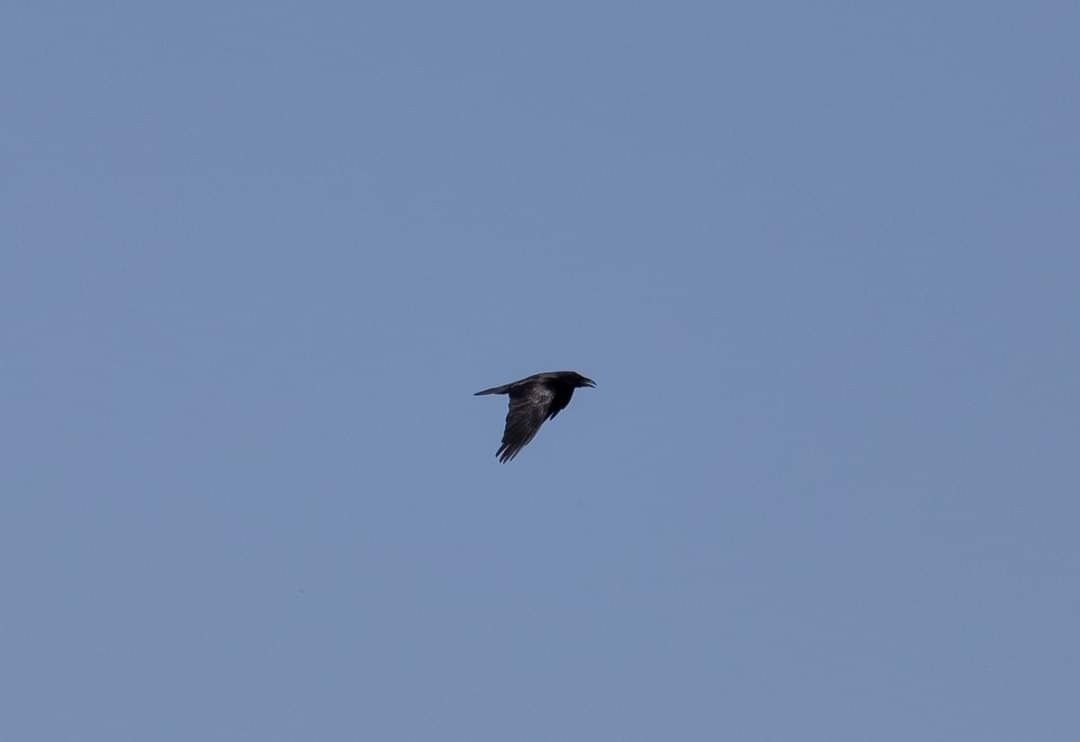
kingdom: Animalia
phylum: Chordata
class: Aves
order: Passeriformes
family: Corvidae
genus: Corvus
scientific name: Corvus corax
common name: Common raven
